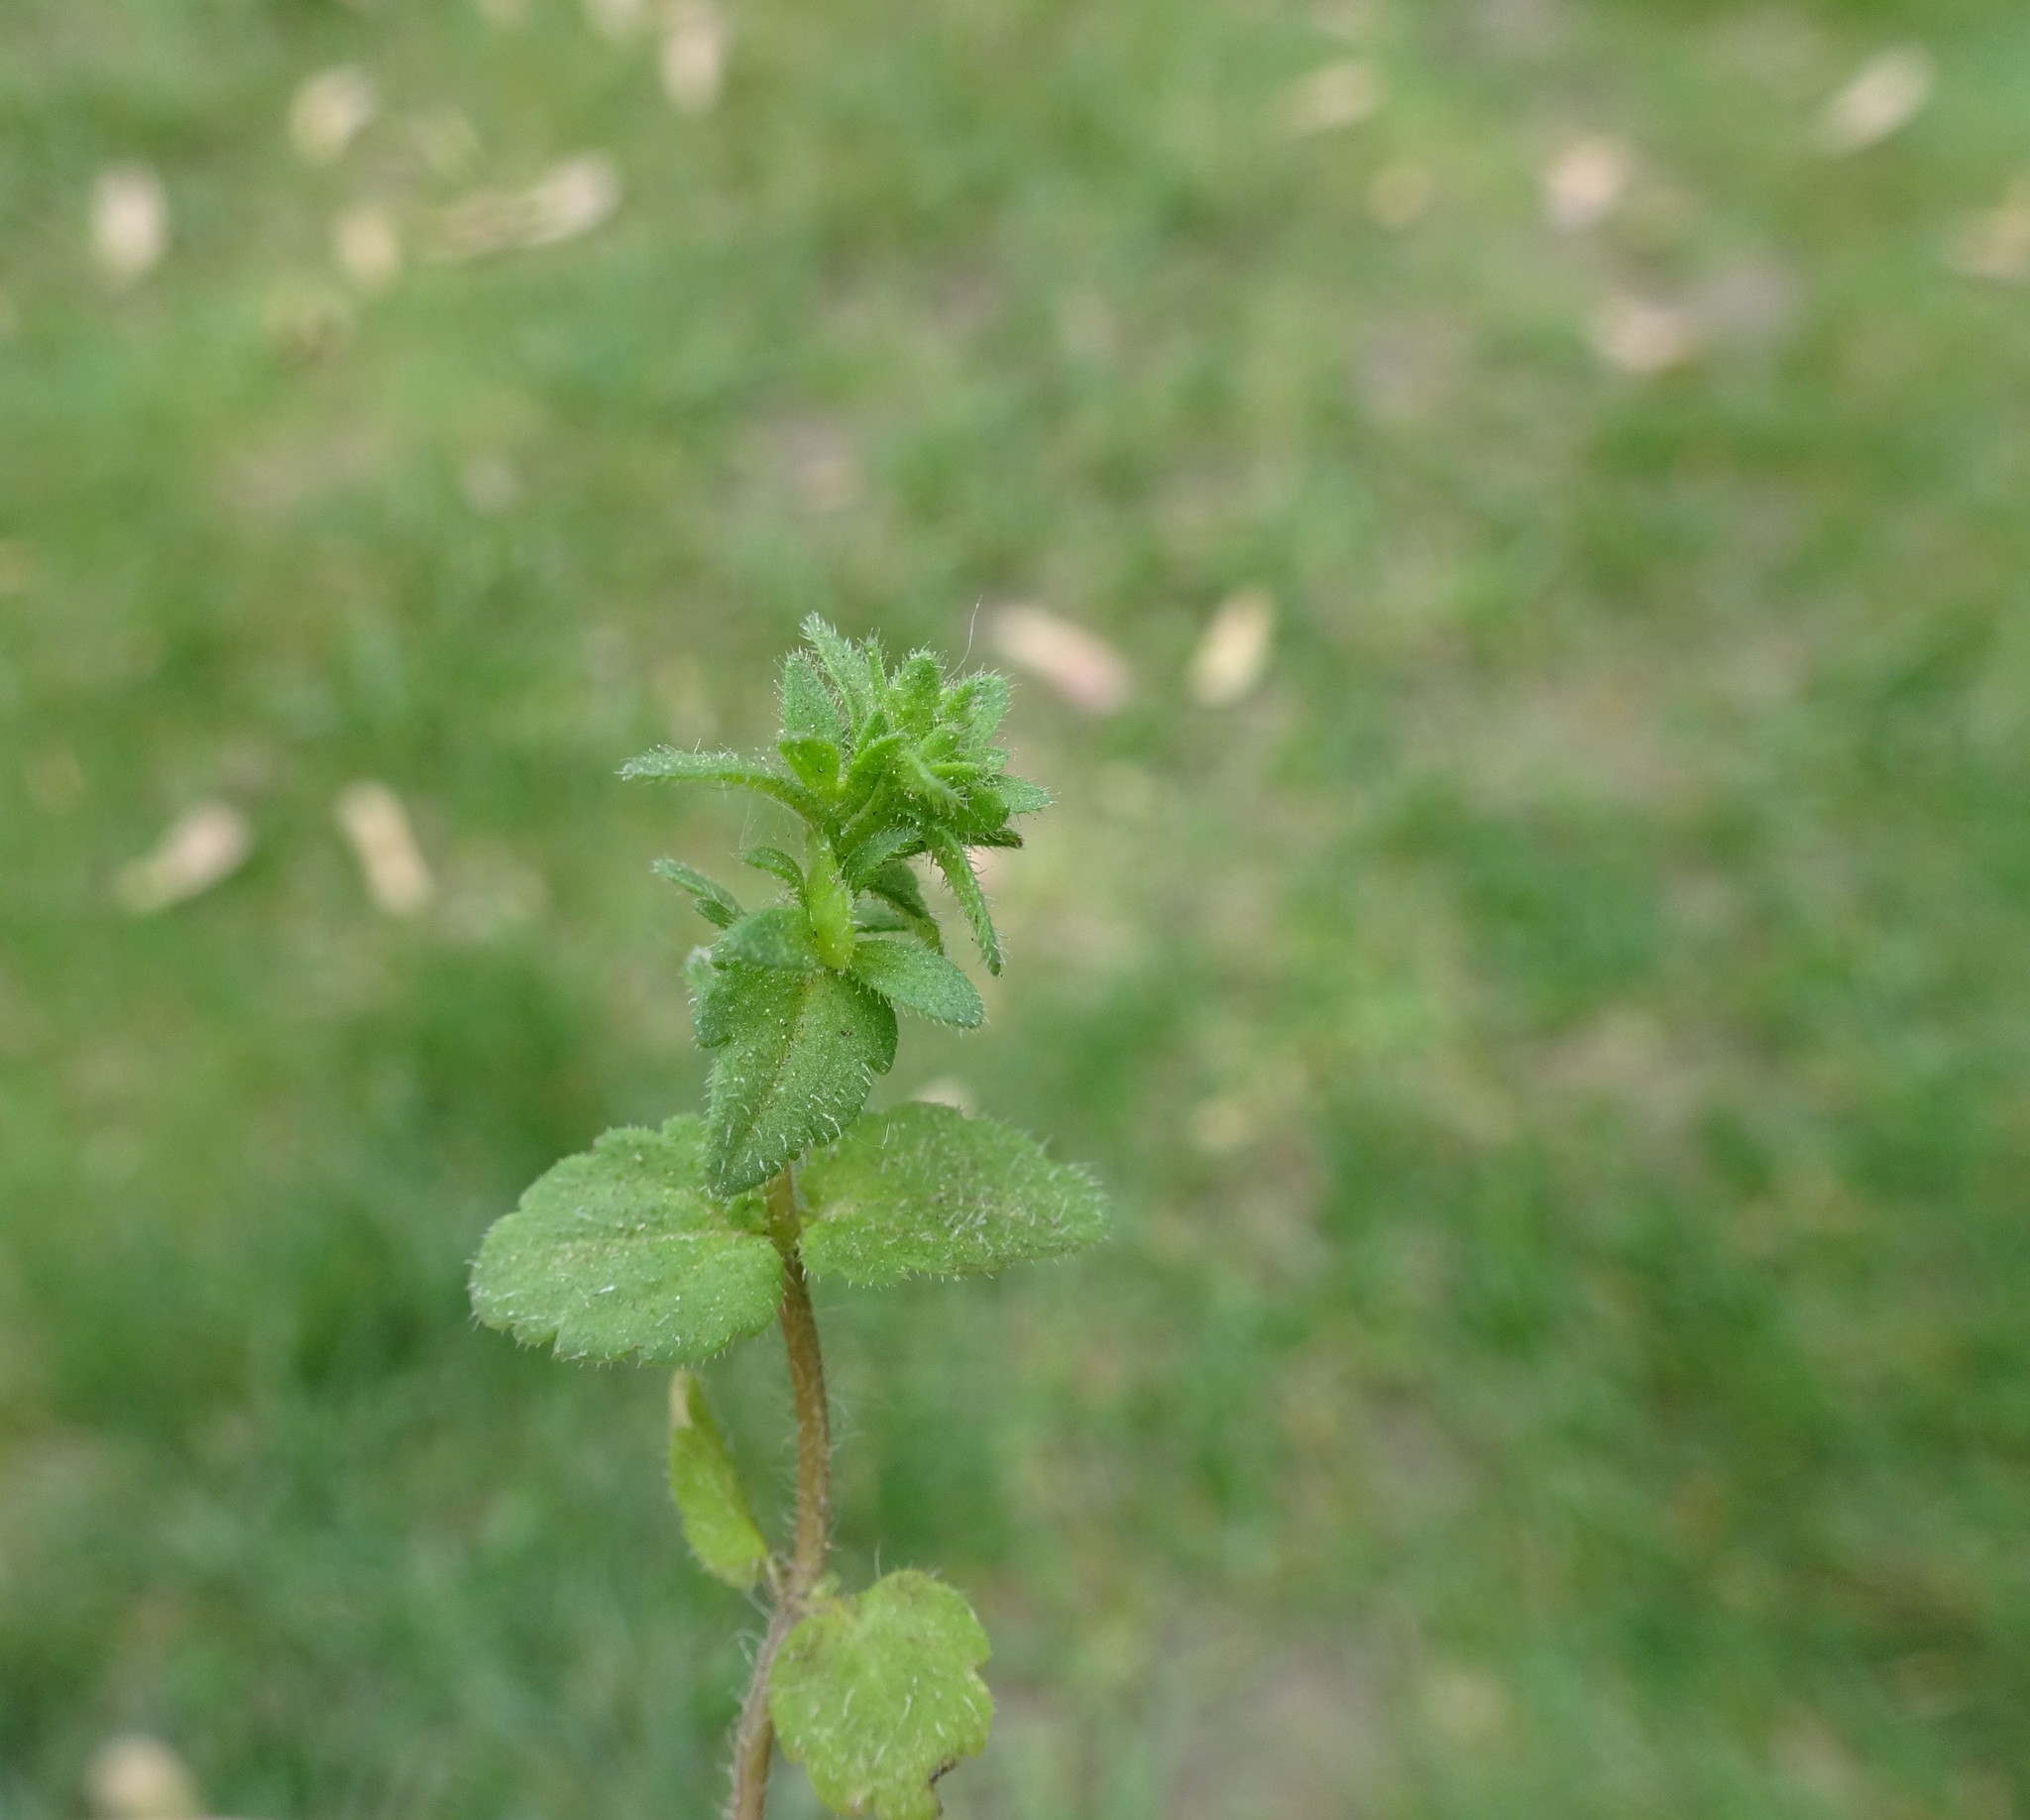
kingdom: Plantae
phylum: Tracheophyta
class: Magnoliopsida
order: Lamiales
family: Plantaginaceae
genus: Veronica
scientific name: Veronica arvensis
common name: Corn speedwell
